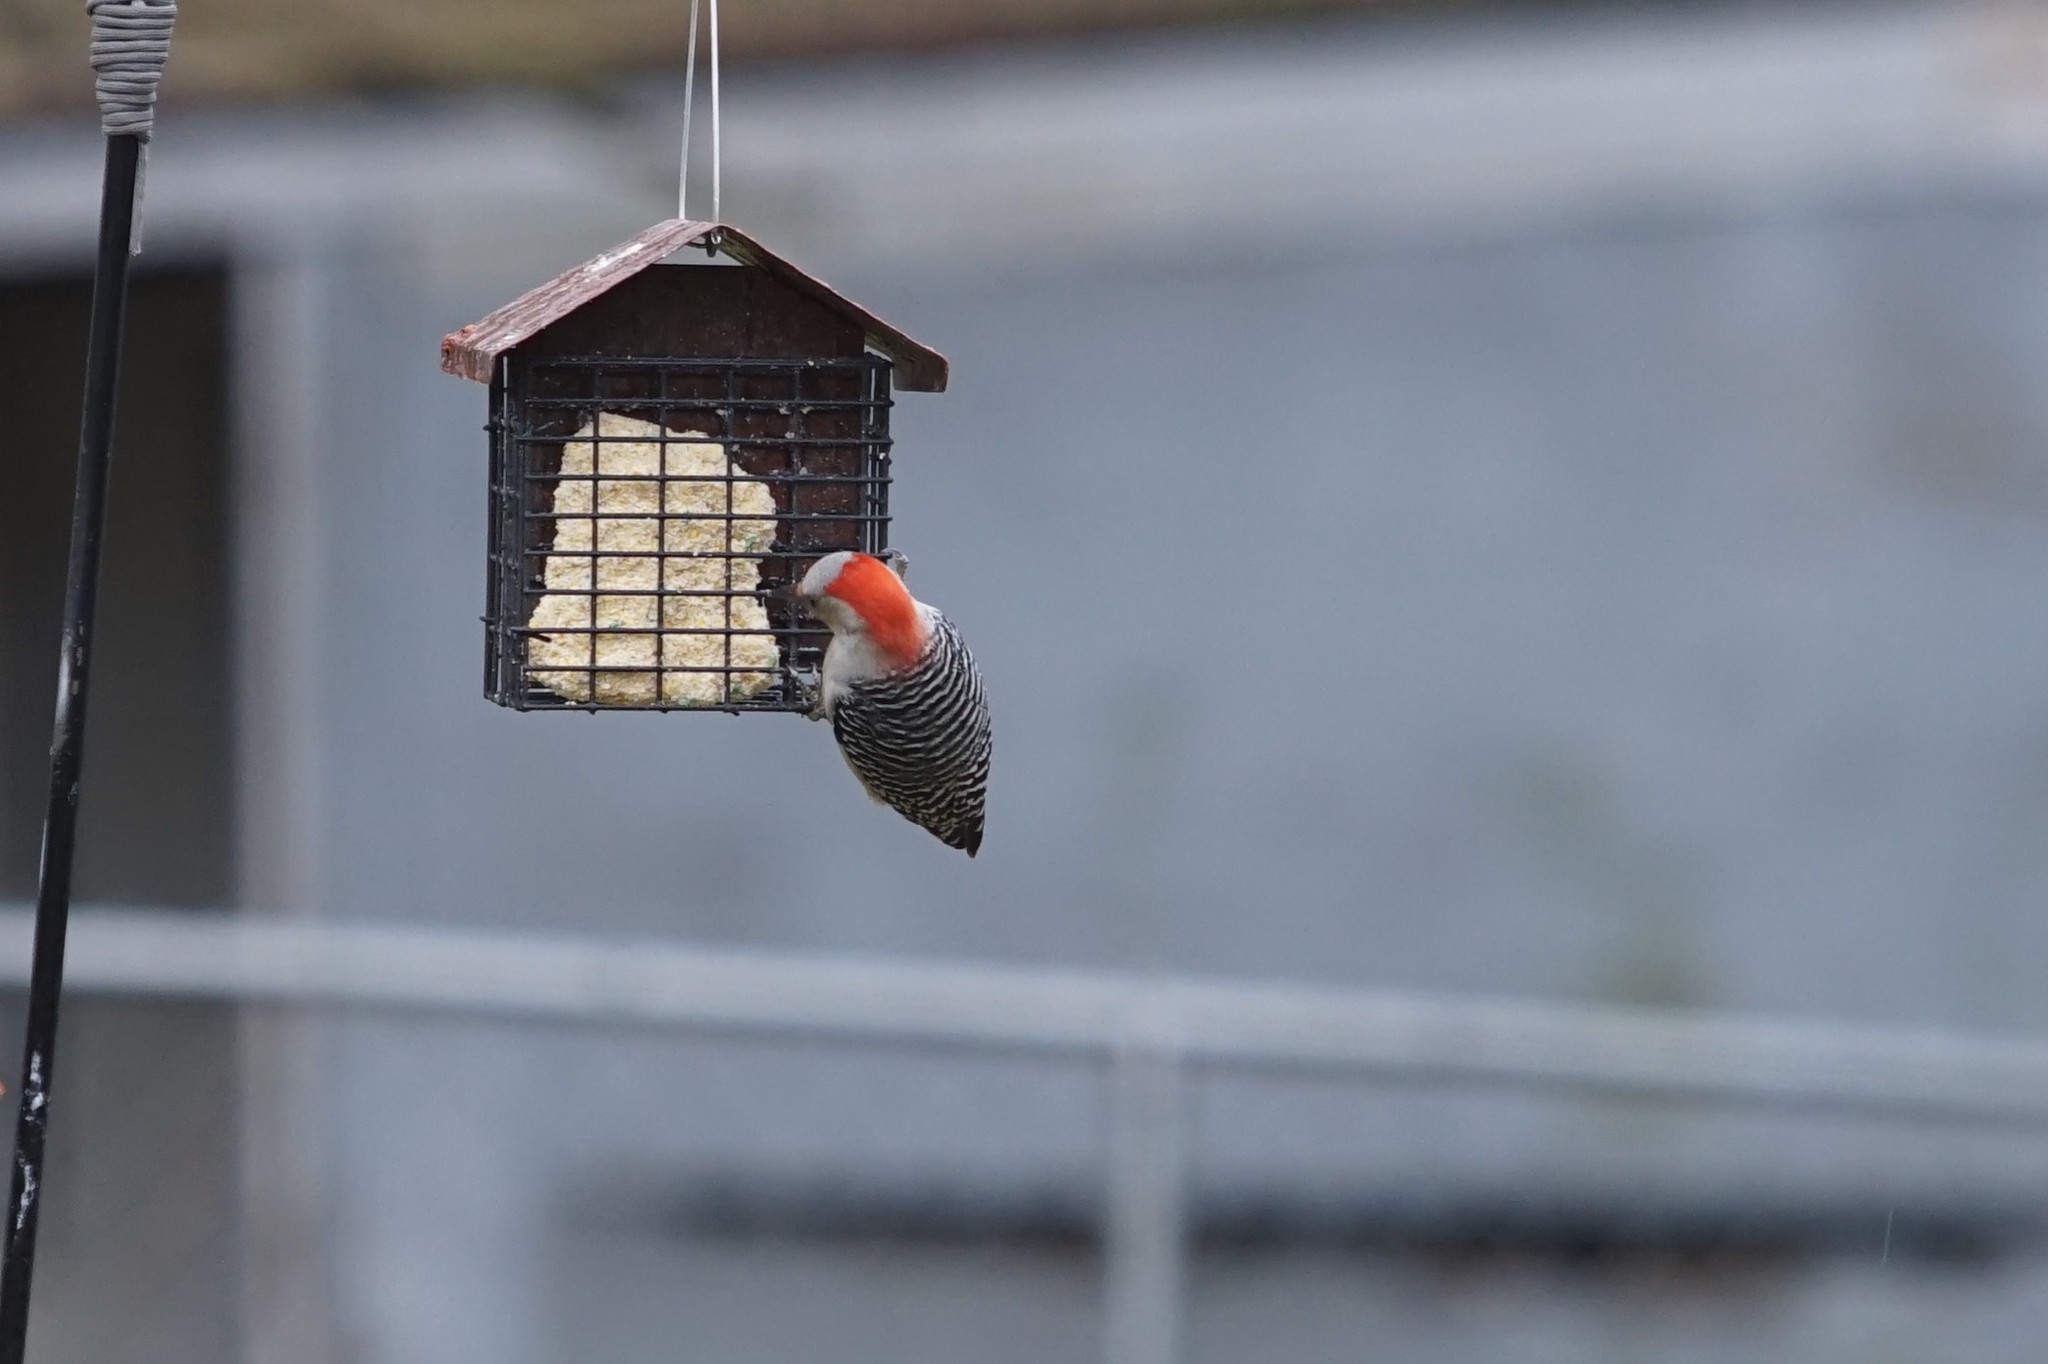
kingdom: Animalia
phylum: Chordata
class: Aves
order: Piciformes
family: Picidae
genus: Melanerpes
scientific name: Melanerpes carolinus
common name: Red-bellied woodpecker
